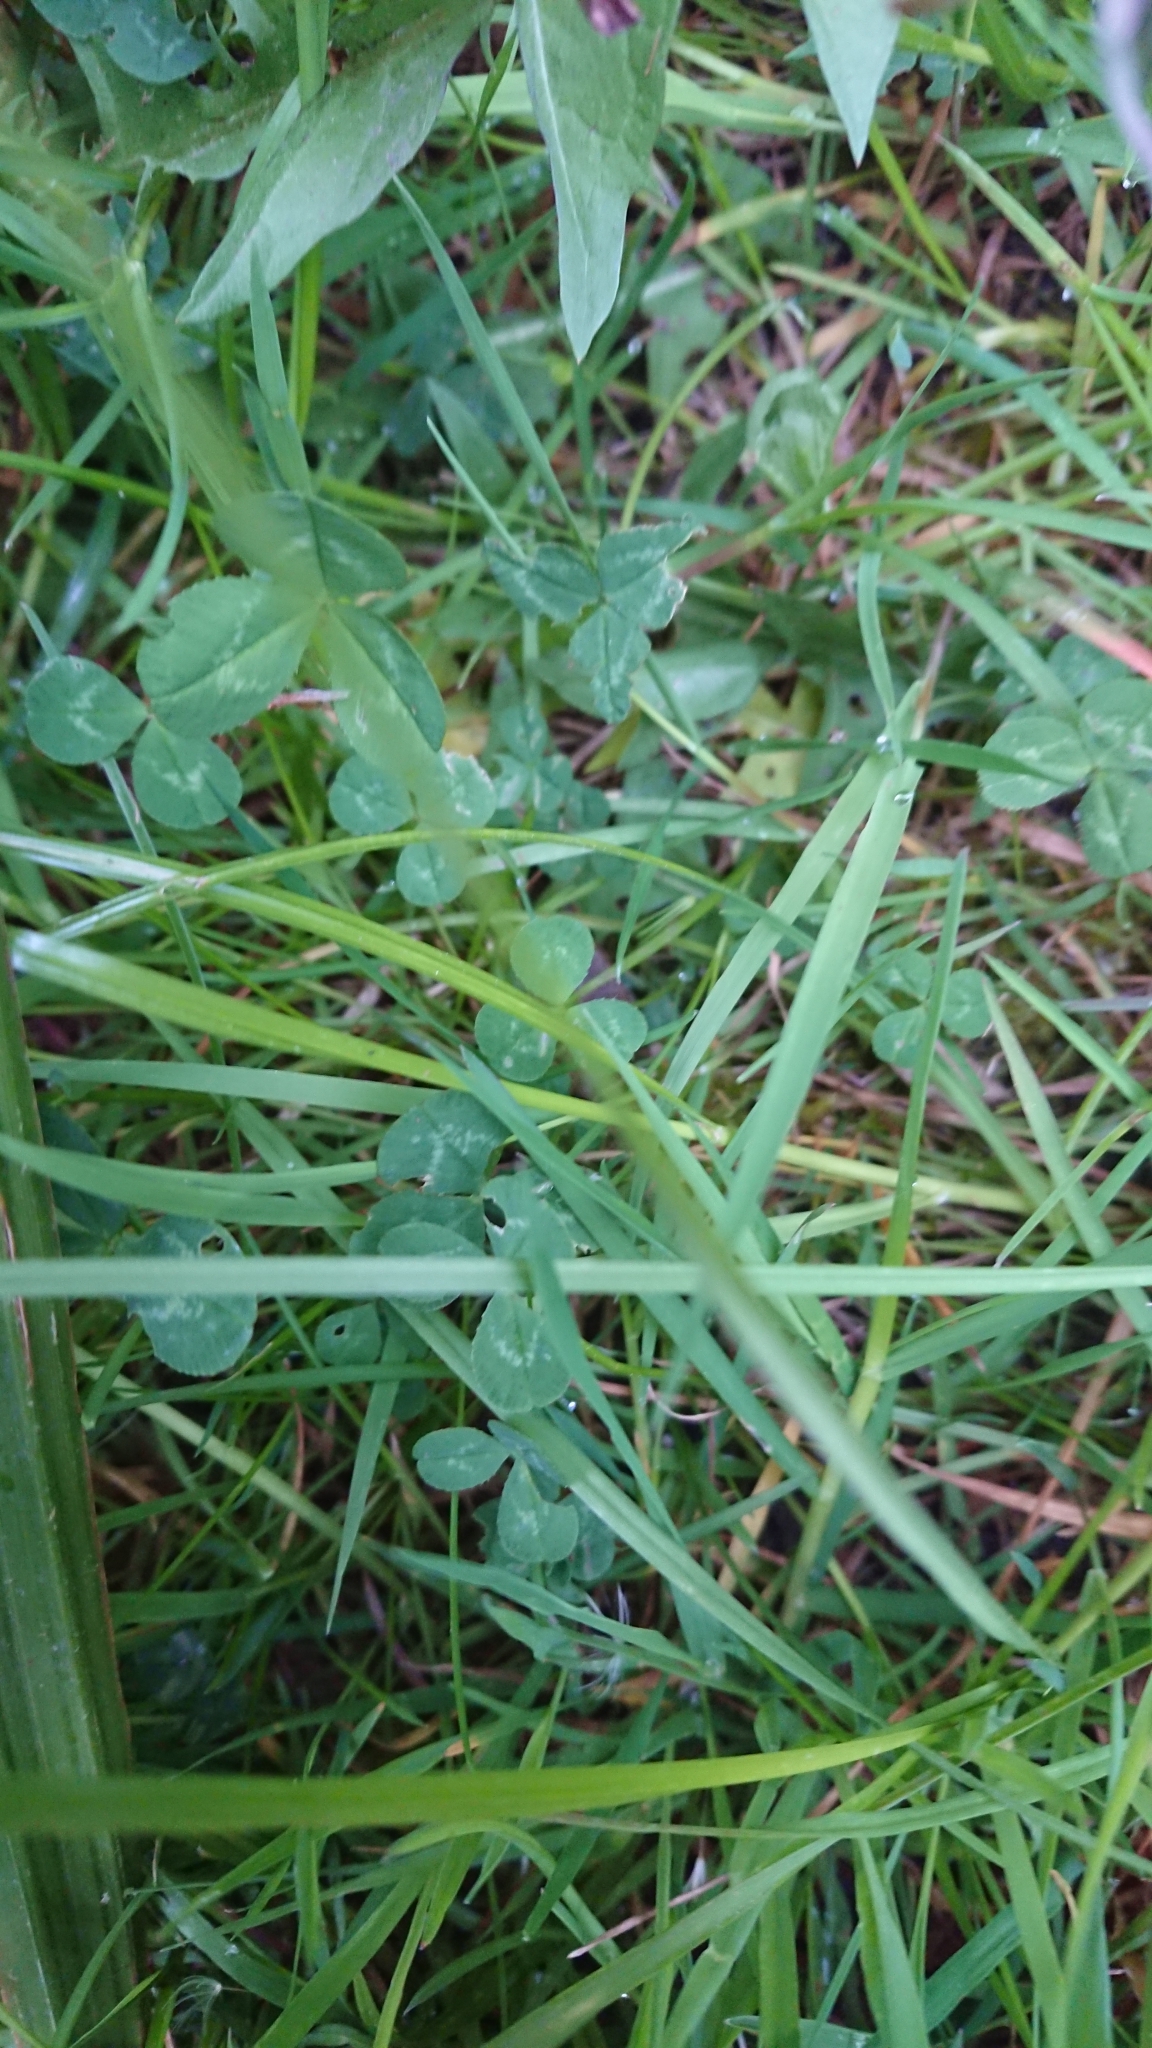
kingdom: Plantae
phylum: Tracheophyta
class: Magnoliopsida
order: Fabales
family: Fabaceae
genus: Trifolium
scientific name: Trifolium repens
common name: White clover
